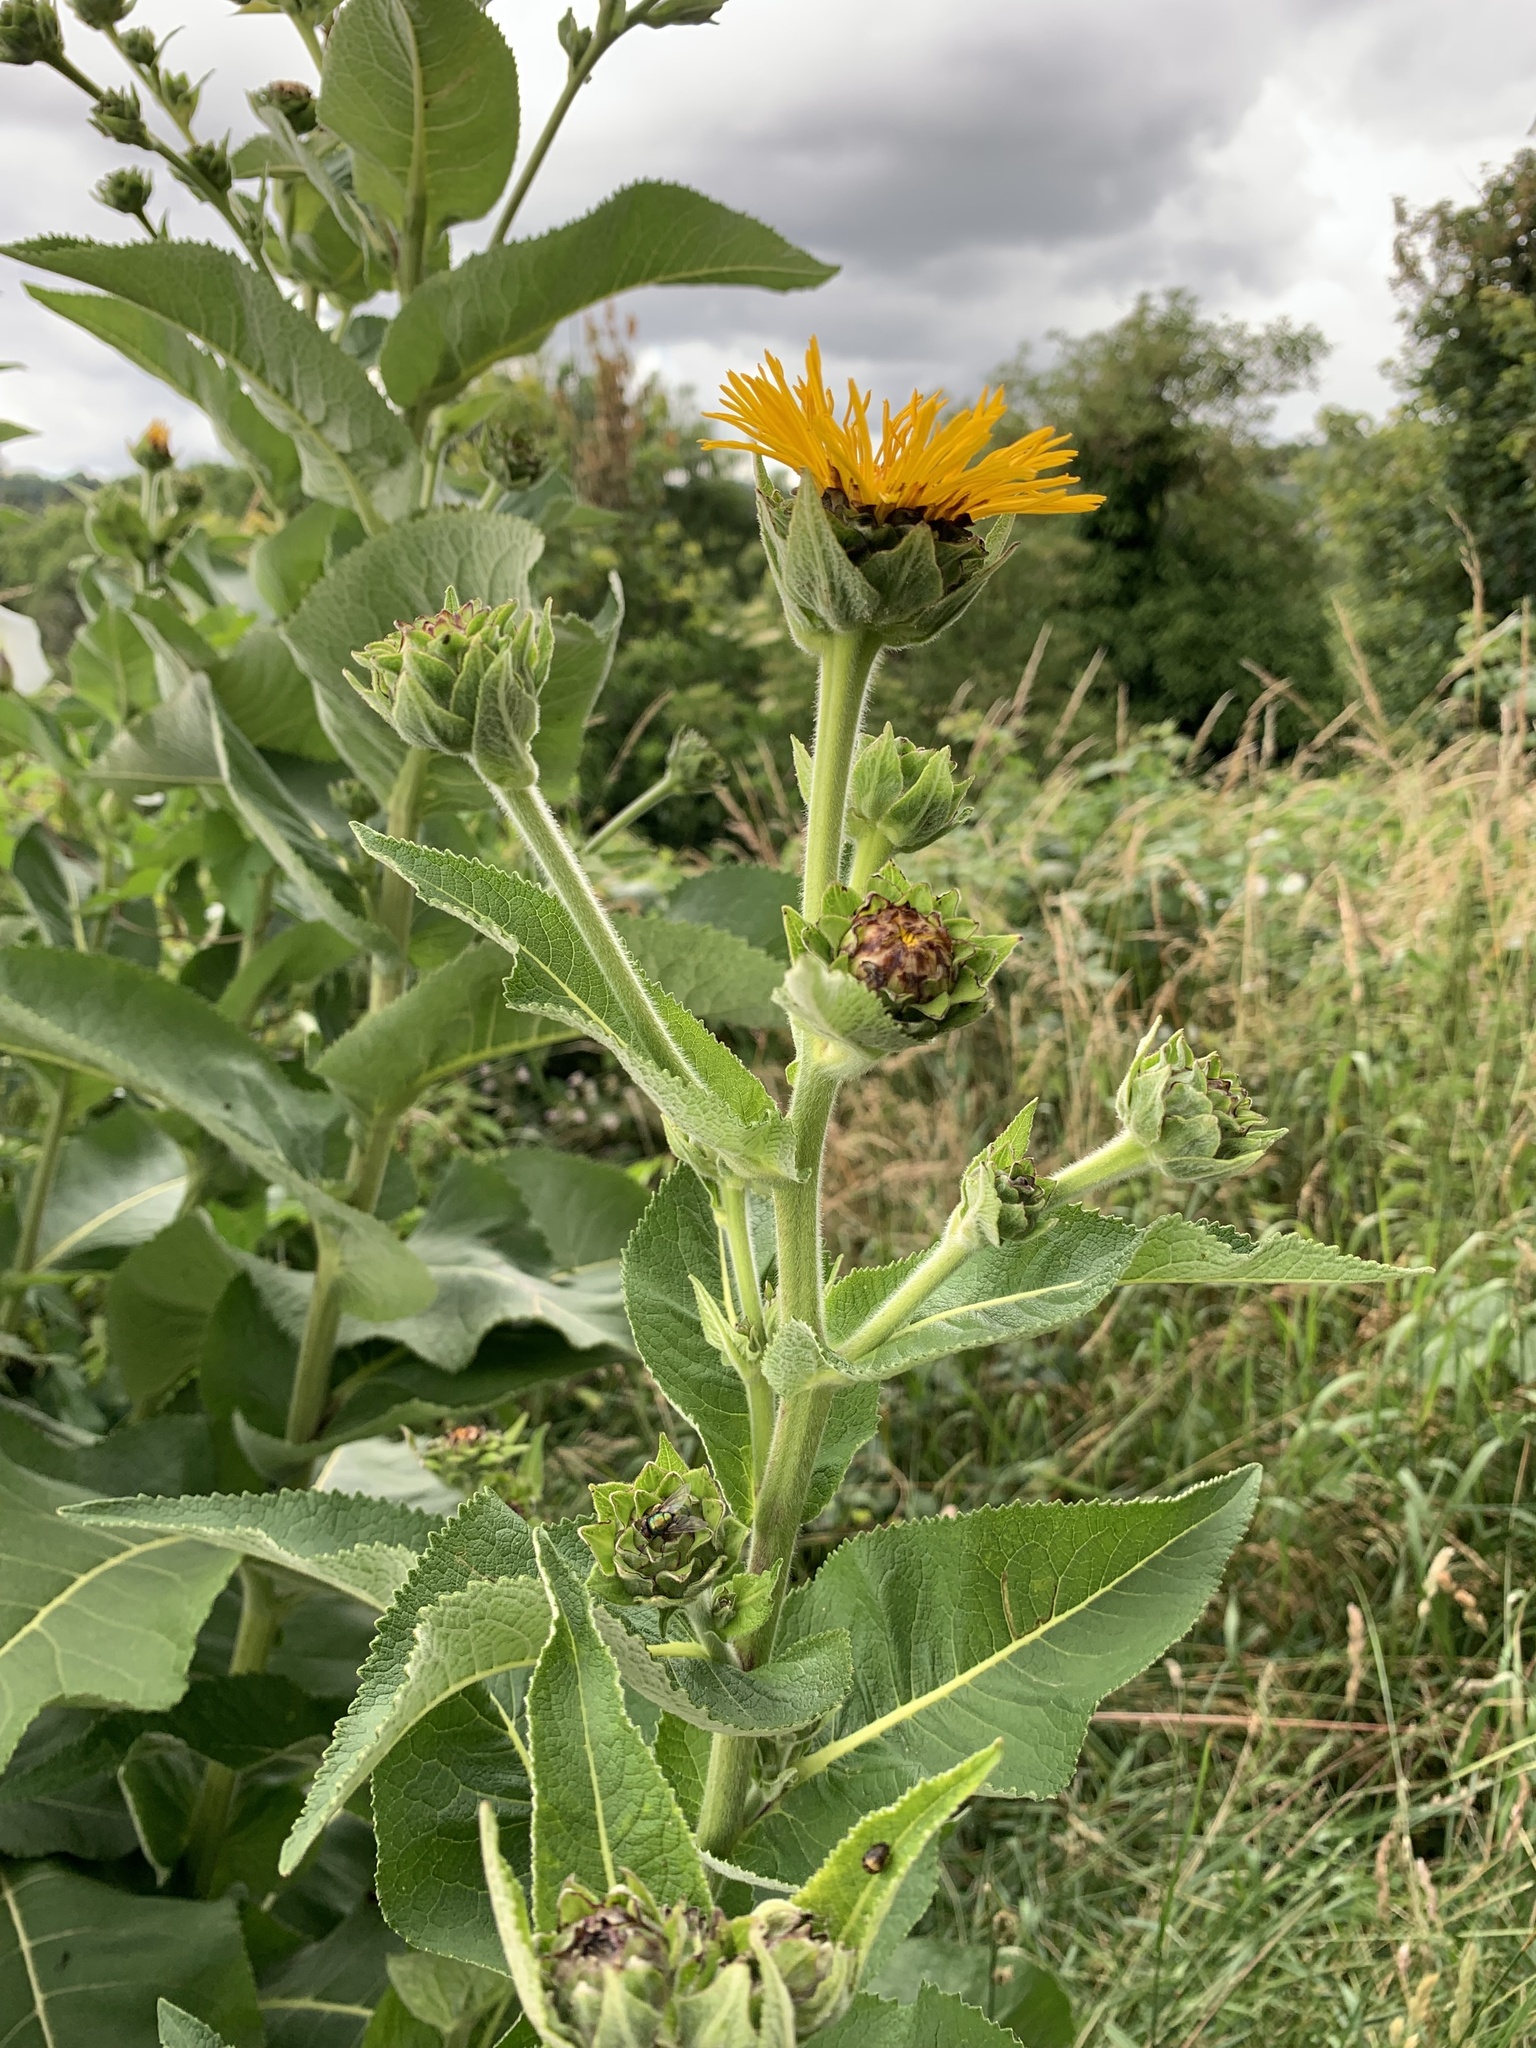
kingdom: Plantae
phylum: Tracheophyta
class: Magnoliopsida
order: Asterales
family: Asteraceae
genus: Inula
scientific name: Inula helenium
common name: Elecampane
